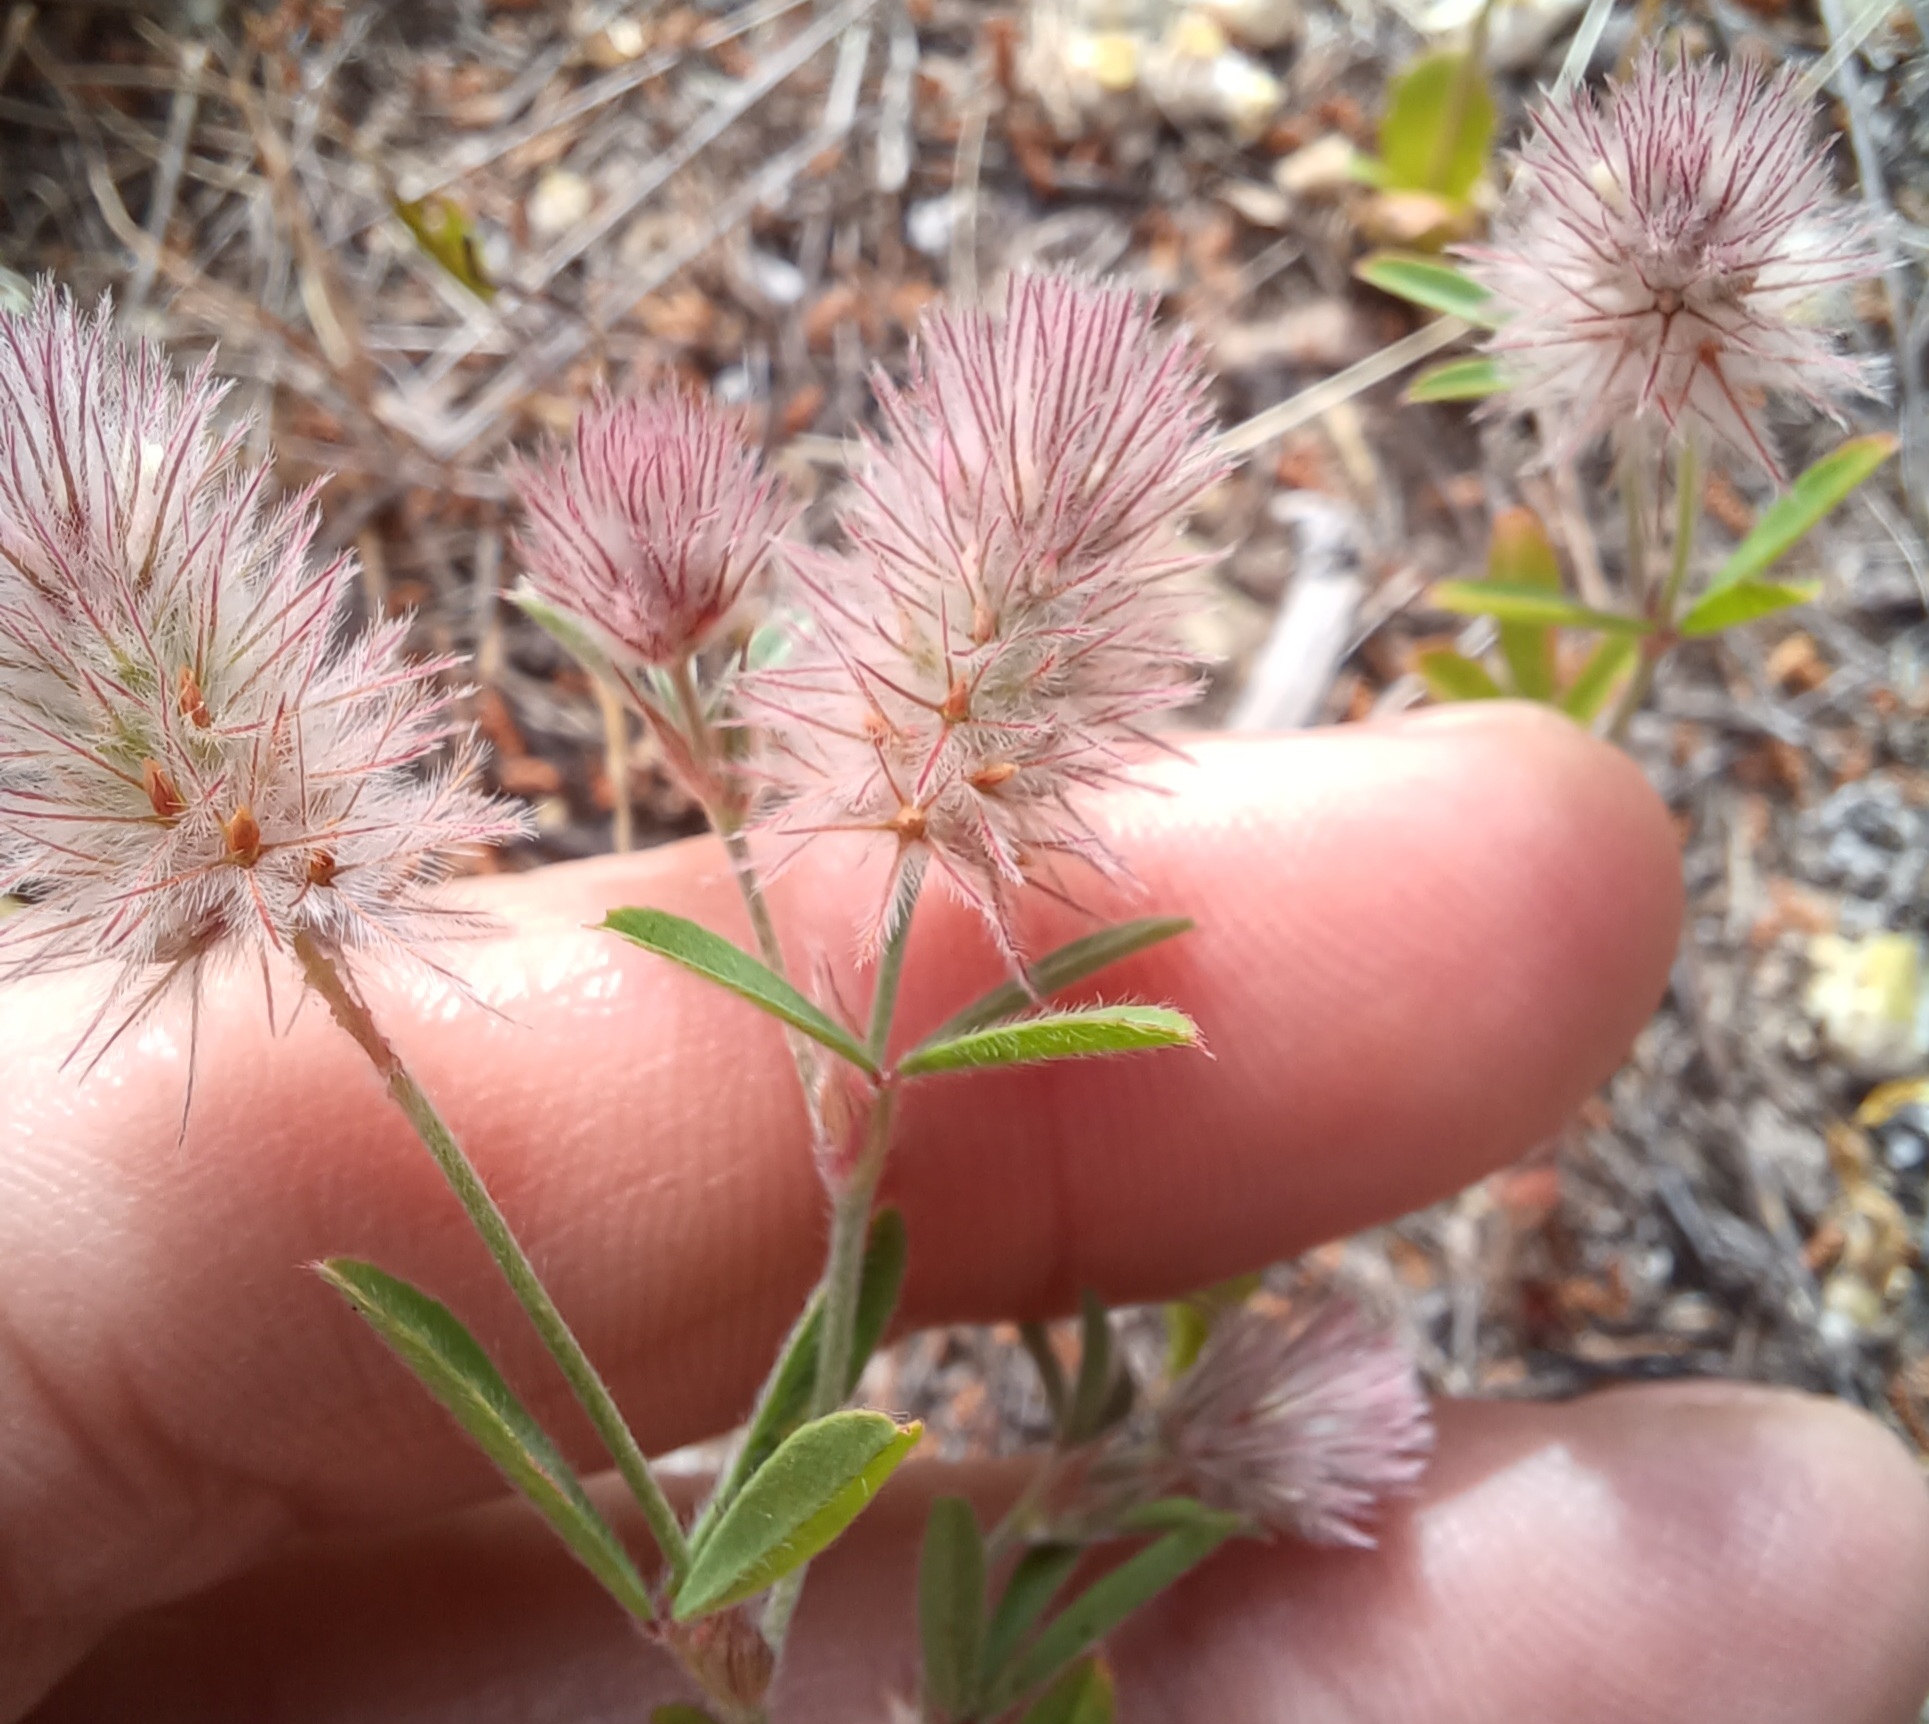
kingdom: Plantae
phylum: Tracheophyta
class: Magnoliopsida
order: Fabales
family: Fabaceae
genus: Trifolium
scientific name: Trifolium arvense
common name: Hare's-foot clover
